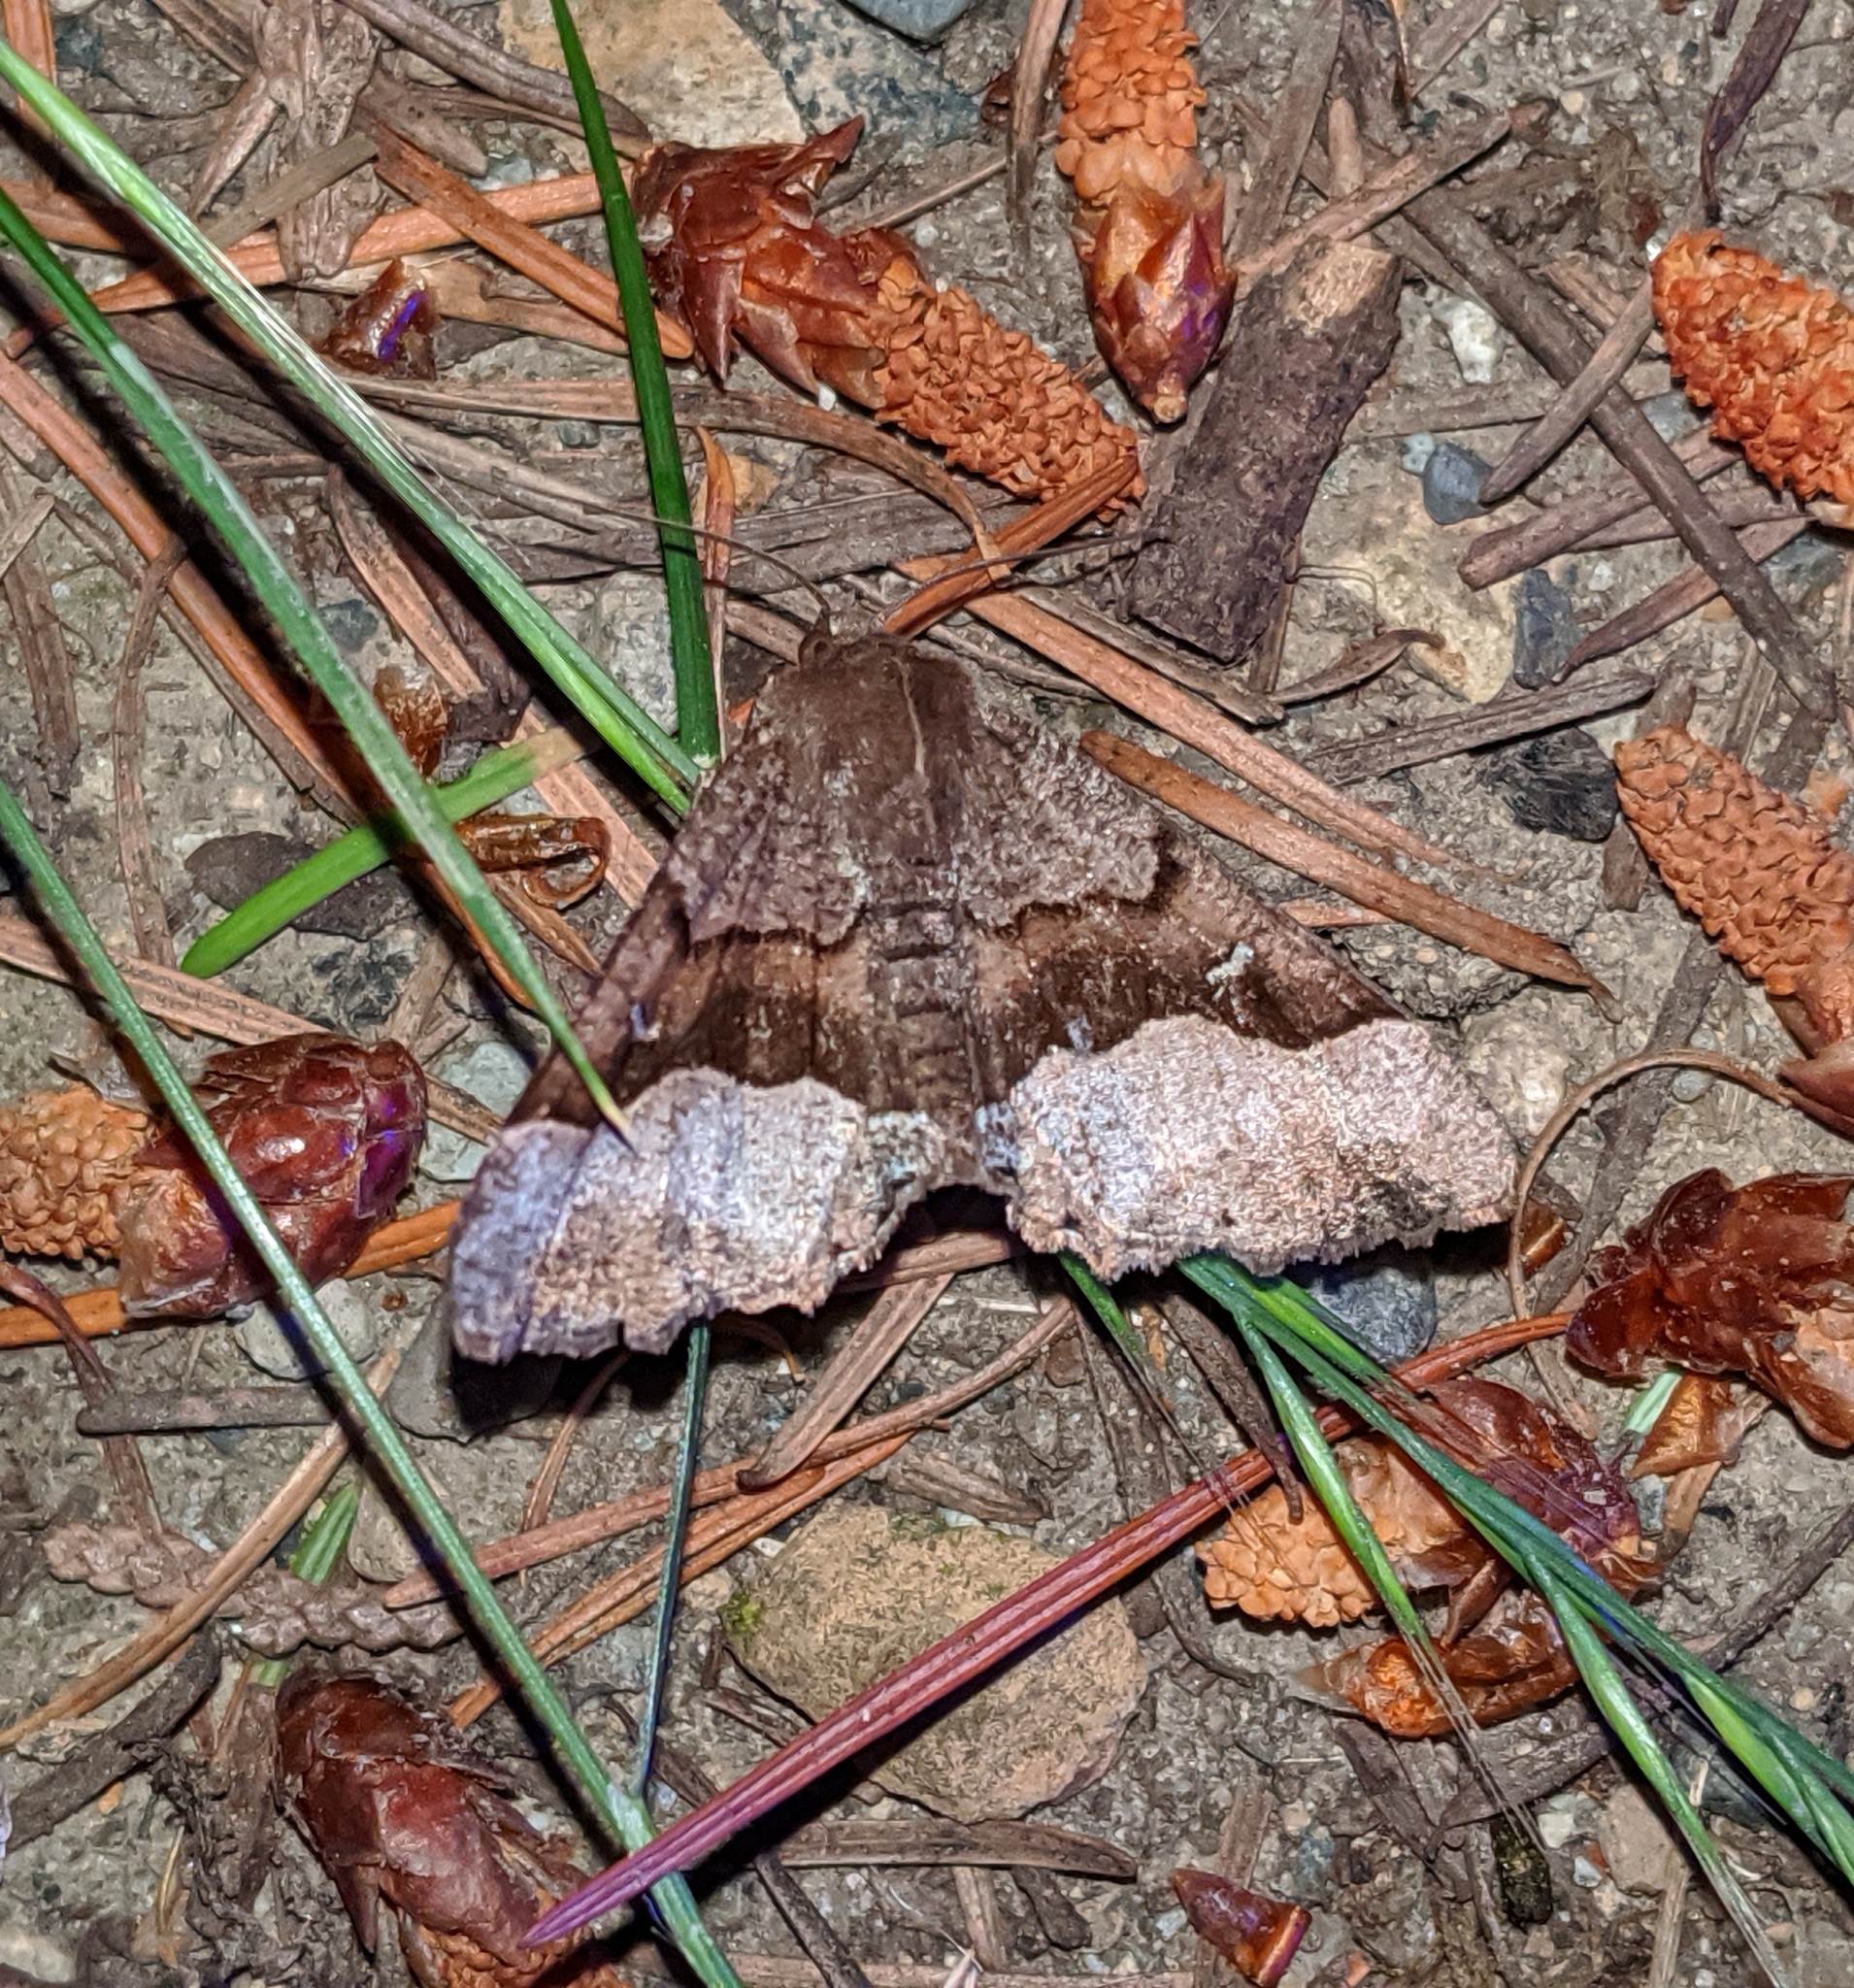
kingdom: Animalia
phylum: Arthropoda
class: Insecta
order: Lepidoptera
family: Geometridae
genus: Pero
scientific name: Pero behrensaria
